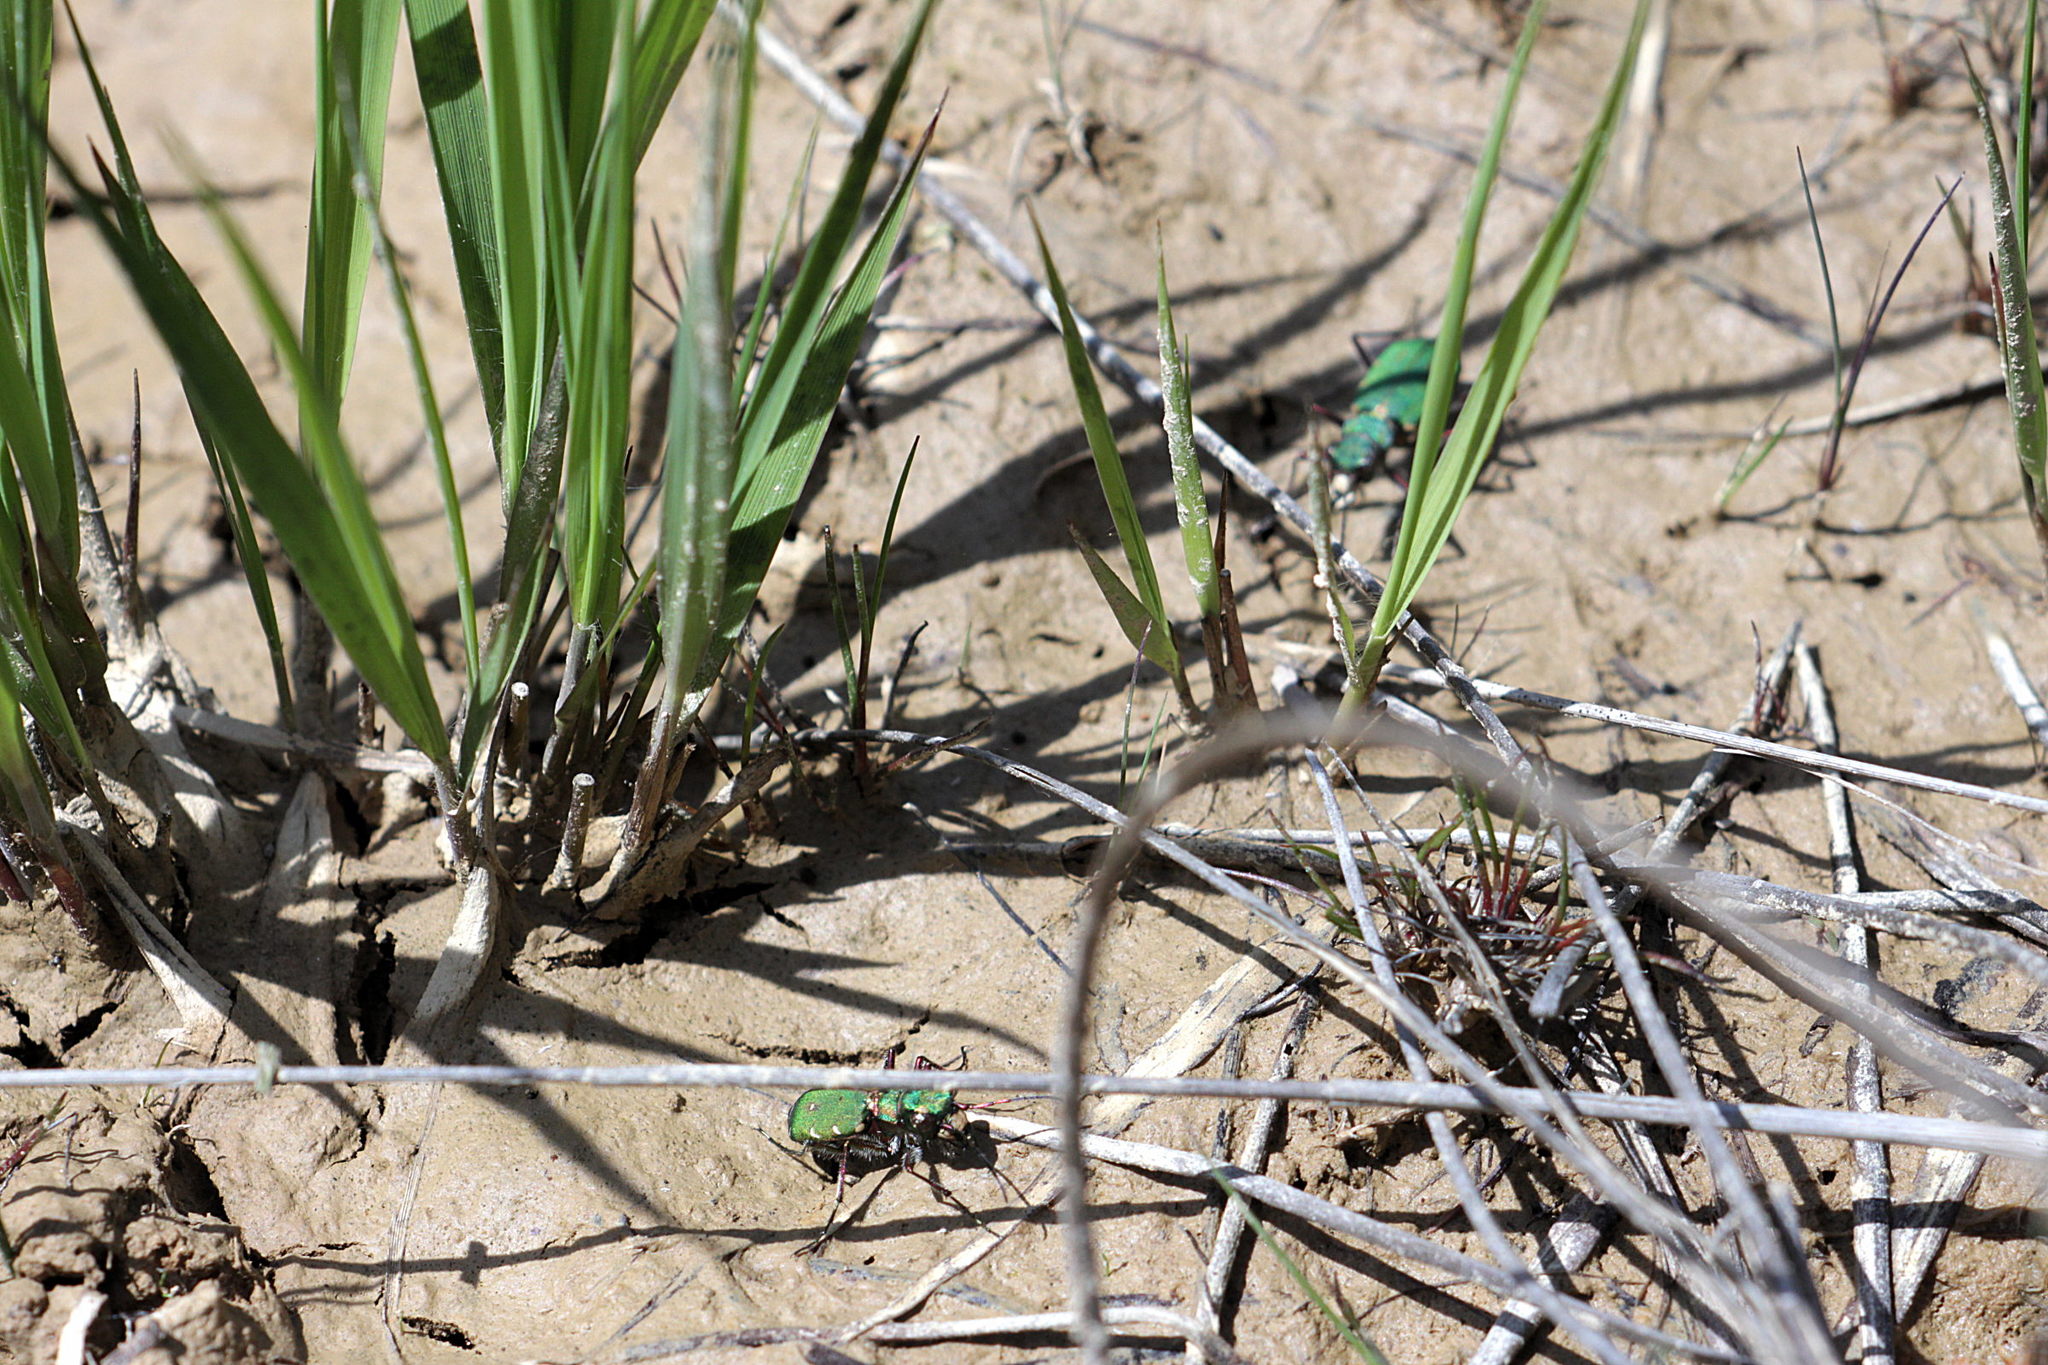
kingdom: Animalia
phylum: Arthropoda
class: Insecta
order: Coleoptera
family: Carabidae
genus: Cicindela
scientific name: Cicindela campestris
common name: Common tiger beetle
